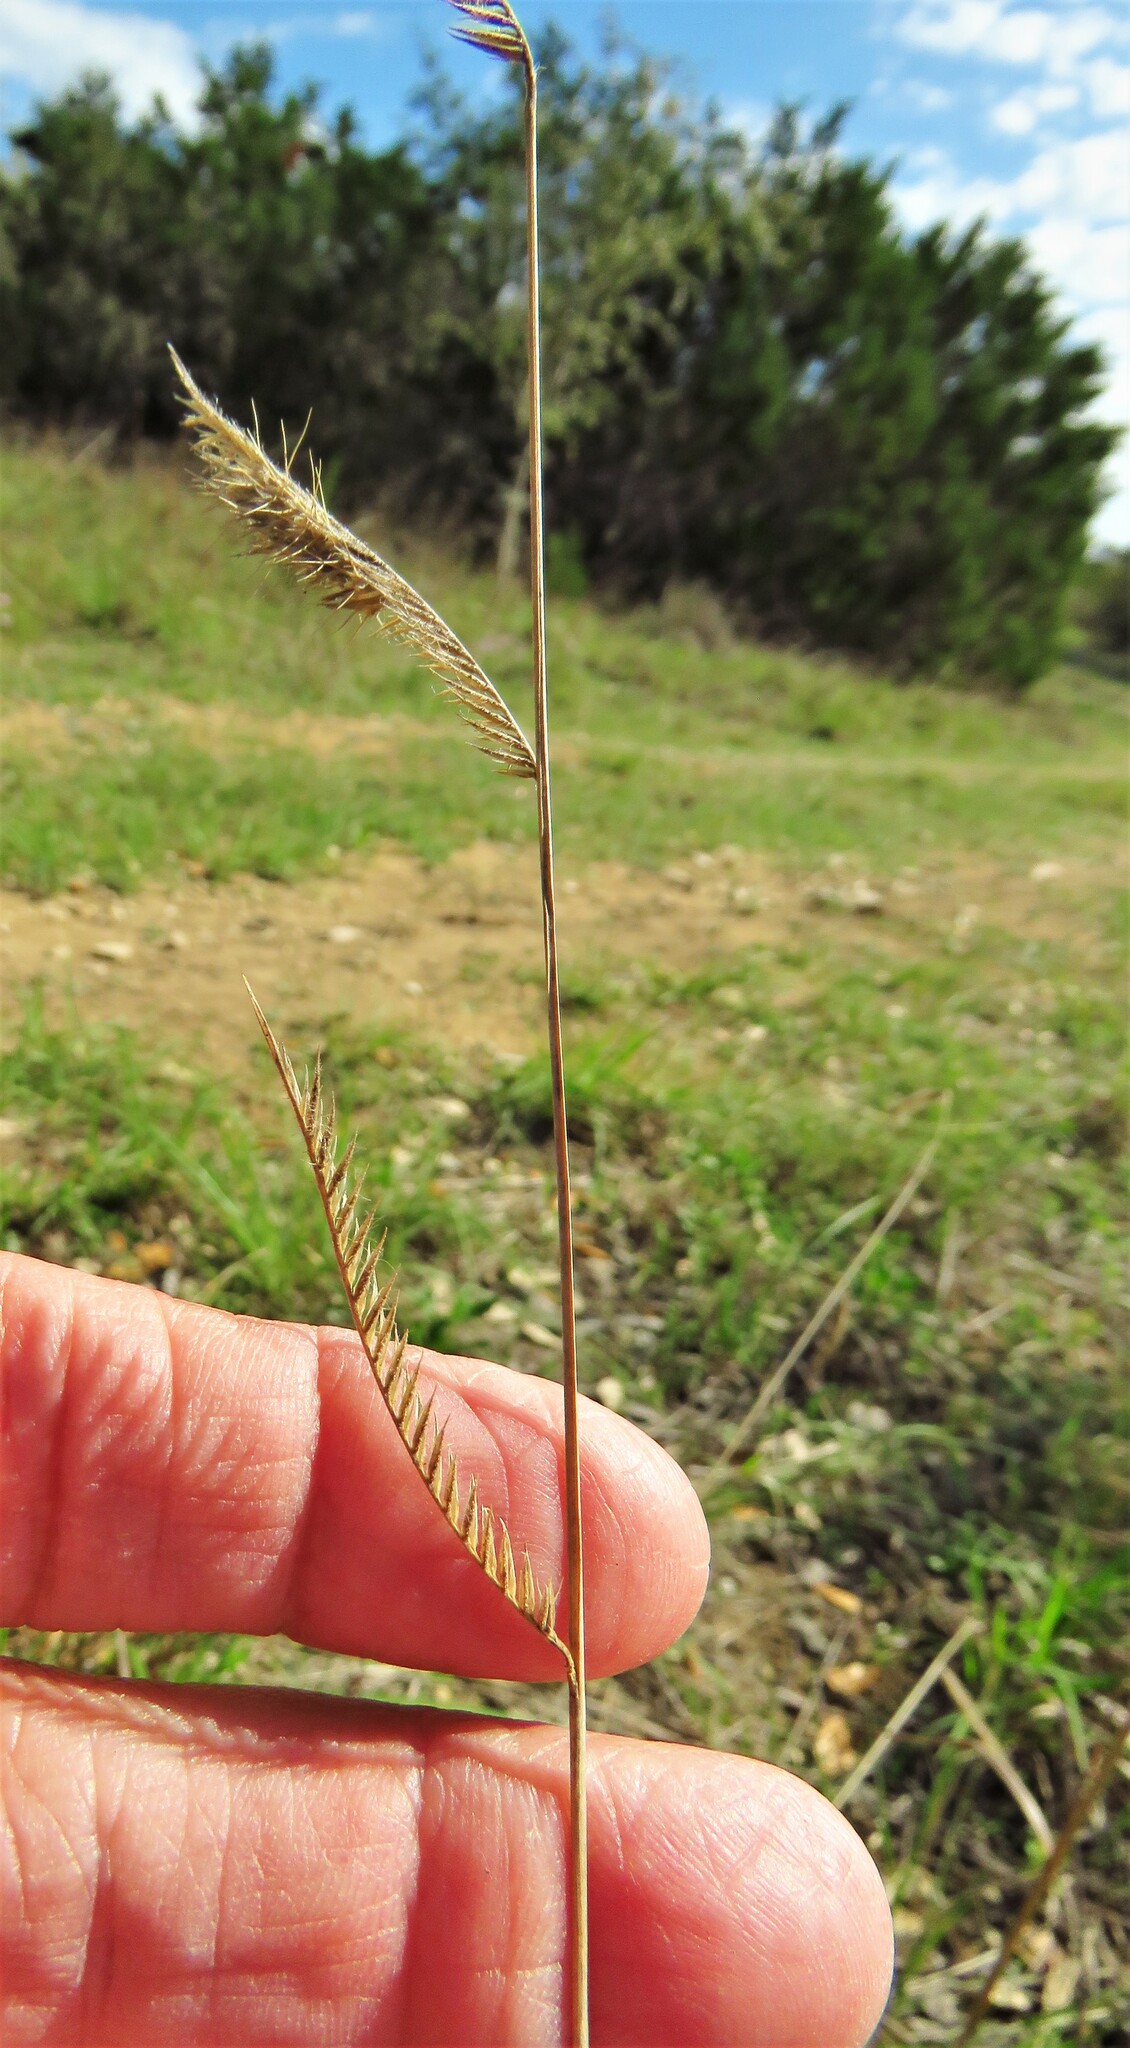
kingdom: Plantae
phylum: Tracheophyta
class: Liliopsida
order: Poales
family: Poaceae
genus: Bouteloua
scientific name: Bouteloua hirsuta
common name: Hairy grama
